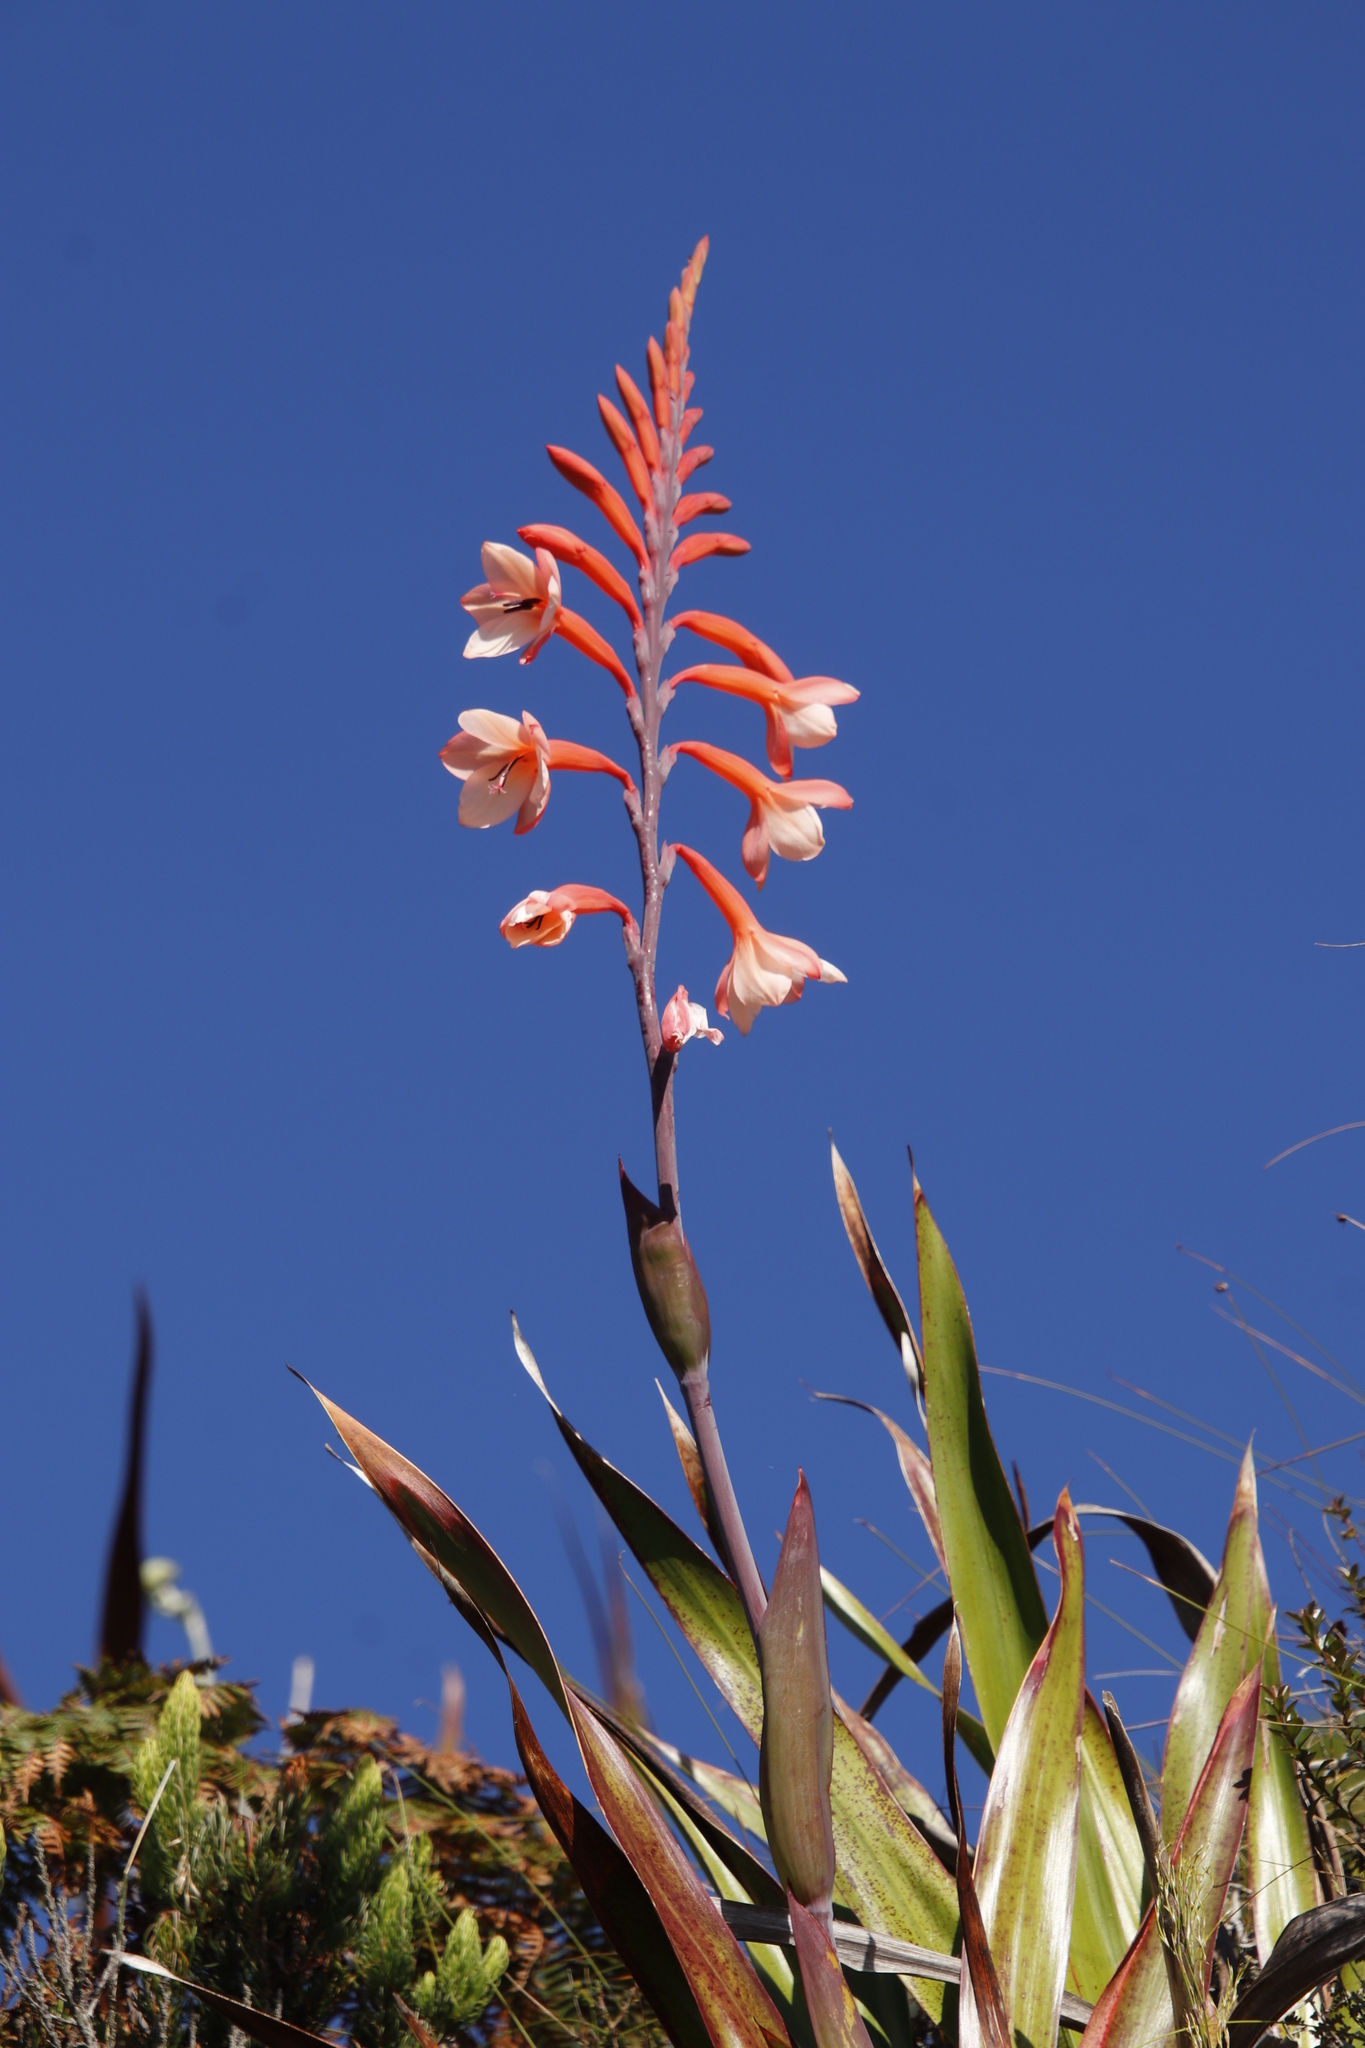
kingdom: Plantae
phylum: Tracheophyta
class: Liliopsida
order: Asparagales
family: Iridaceae
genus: Watsonia
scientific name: Watsonia tabularis
